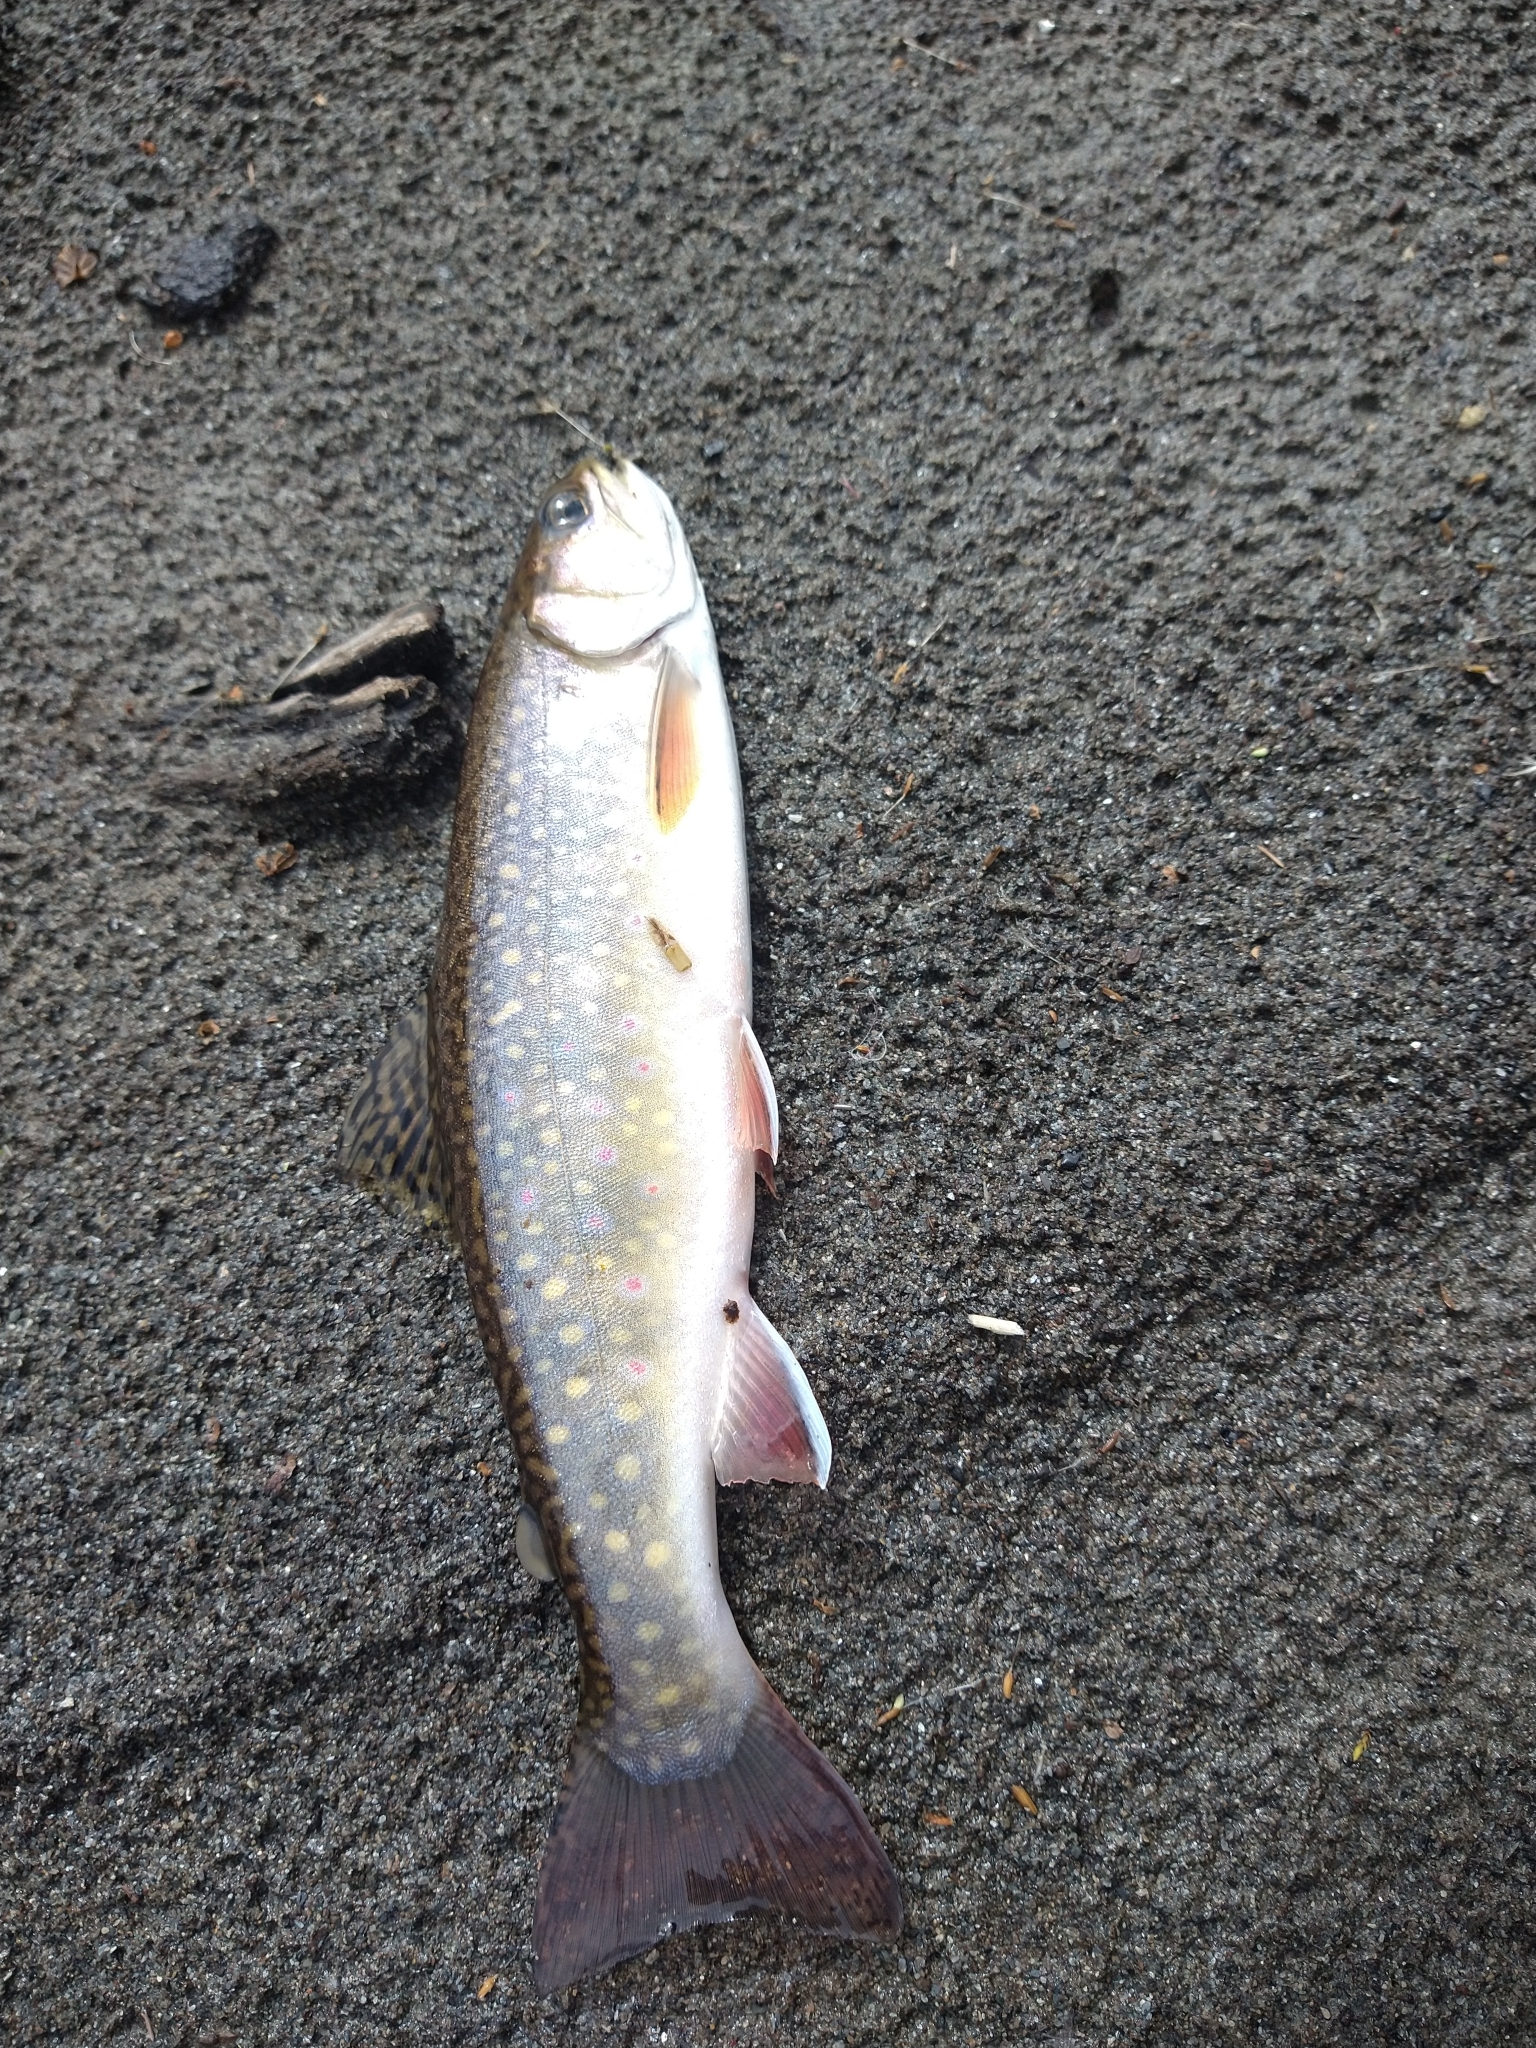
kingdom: Animalia
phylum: Chordata
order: Salmoniformes
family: Salmonidae
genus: Salvelinus
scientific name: Salvelinus fontinalis
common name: Brook trout
